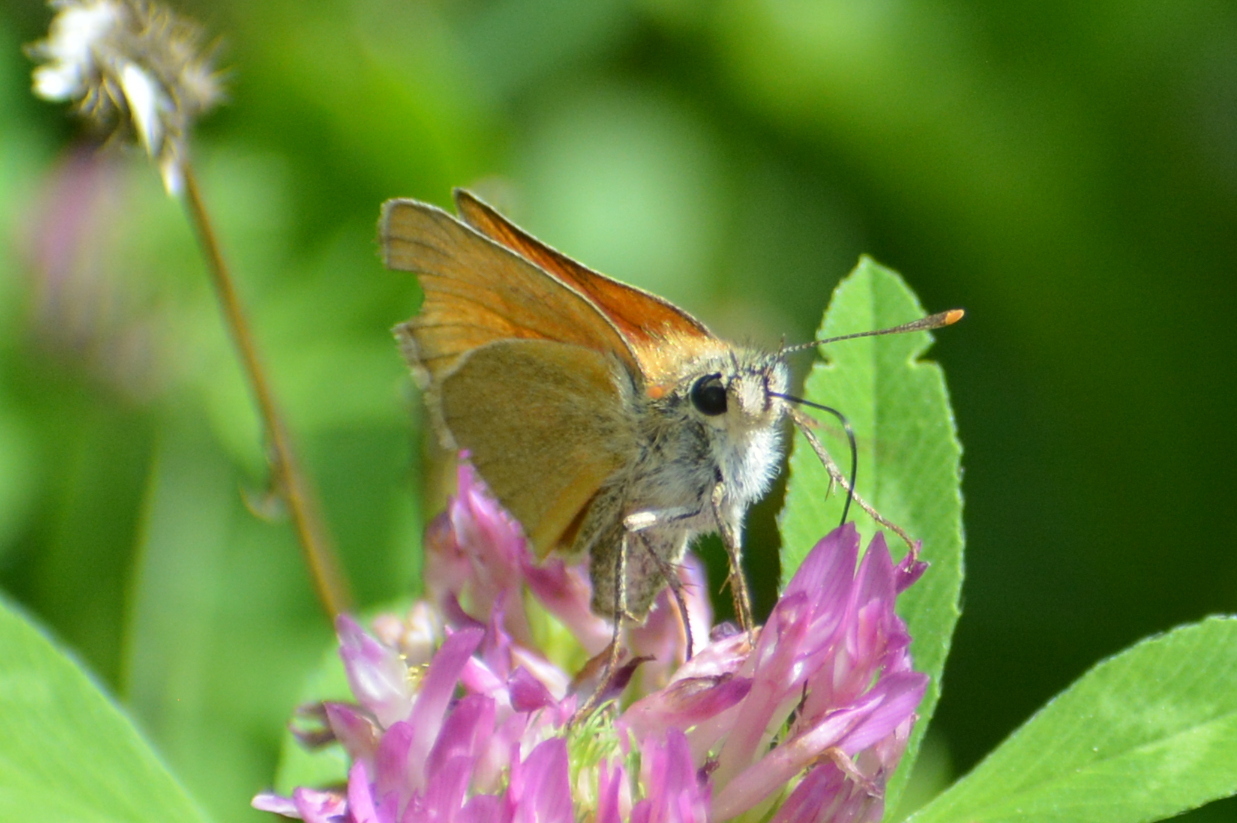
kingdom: Animalia
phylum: Arthropoda
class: Insecta
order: Lepidoptera
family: Hesperiidae
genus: Thymelicus
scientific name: Thymelicus sylvestris
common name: Small skipper
